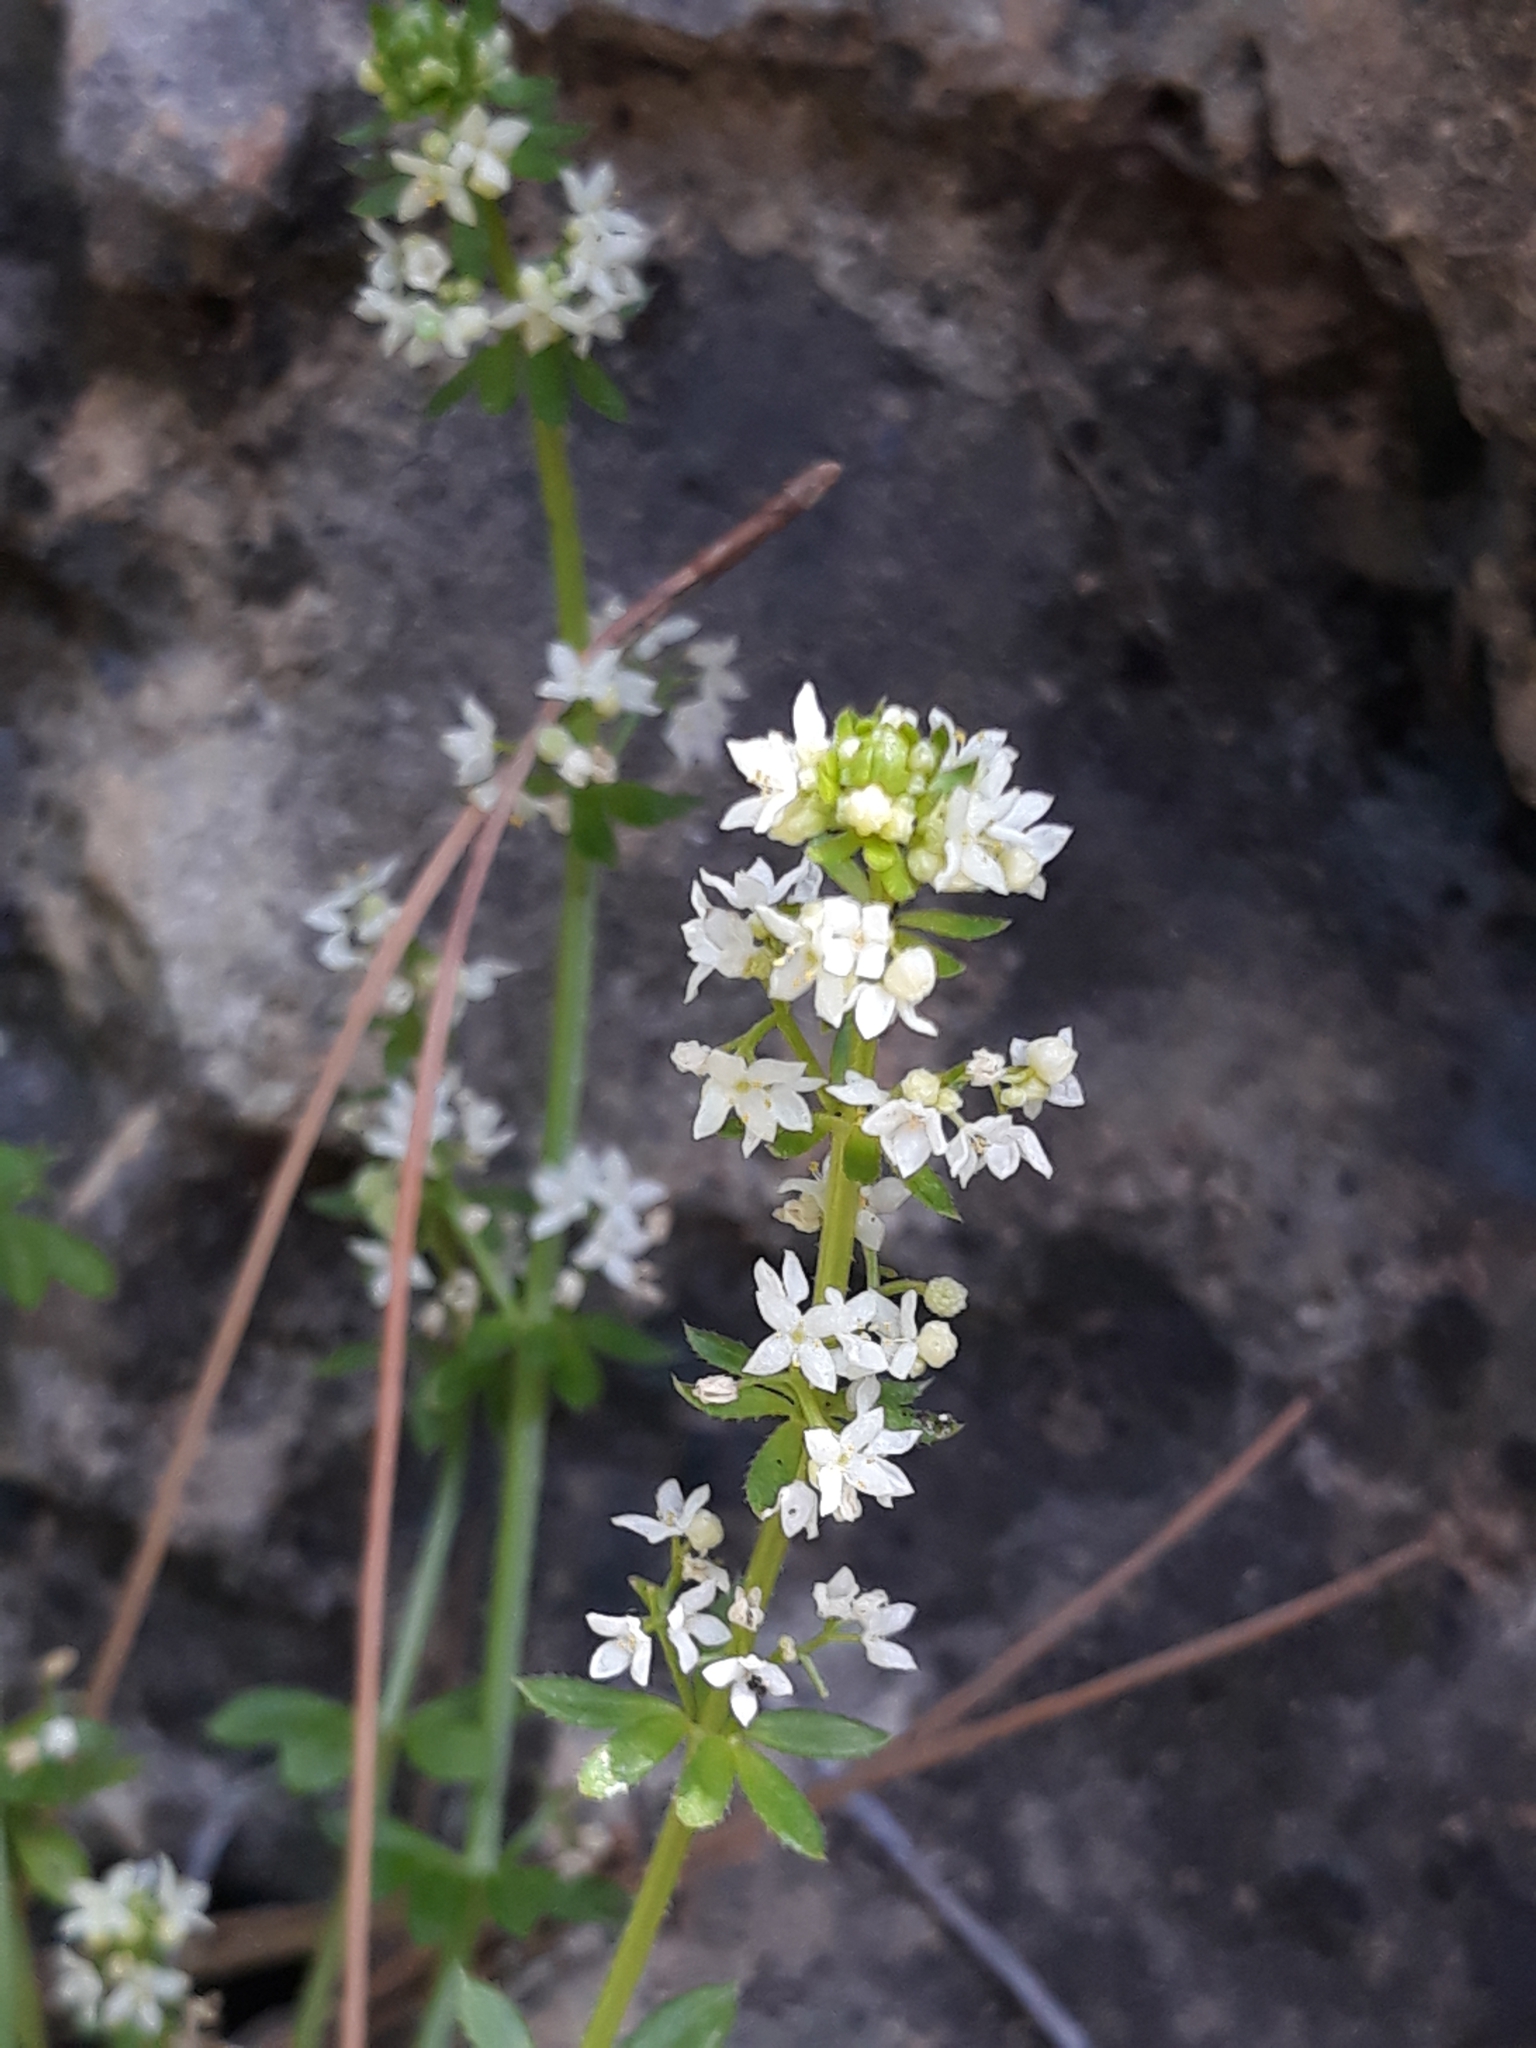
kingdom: Plantae
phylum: Tracheophyta
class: Magnoliopsida
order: Gentianales
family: Rubiaceae
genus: Galium
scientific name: Galium verrucosum
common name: Warty bedstraw
